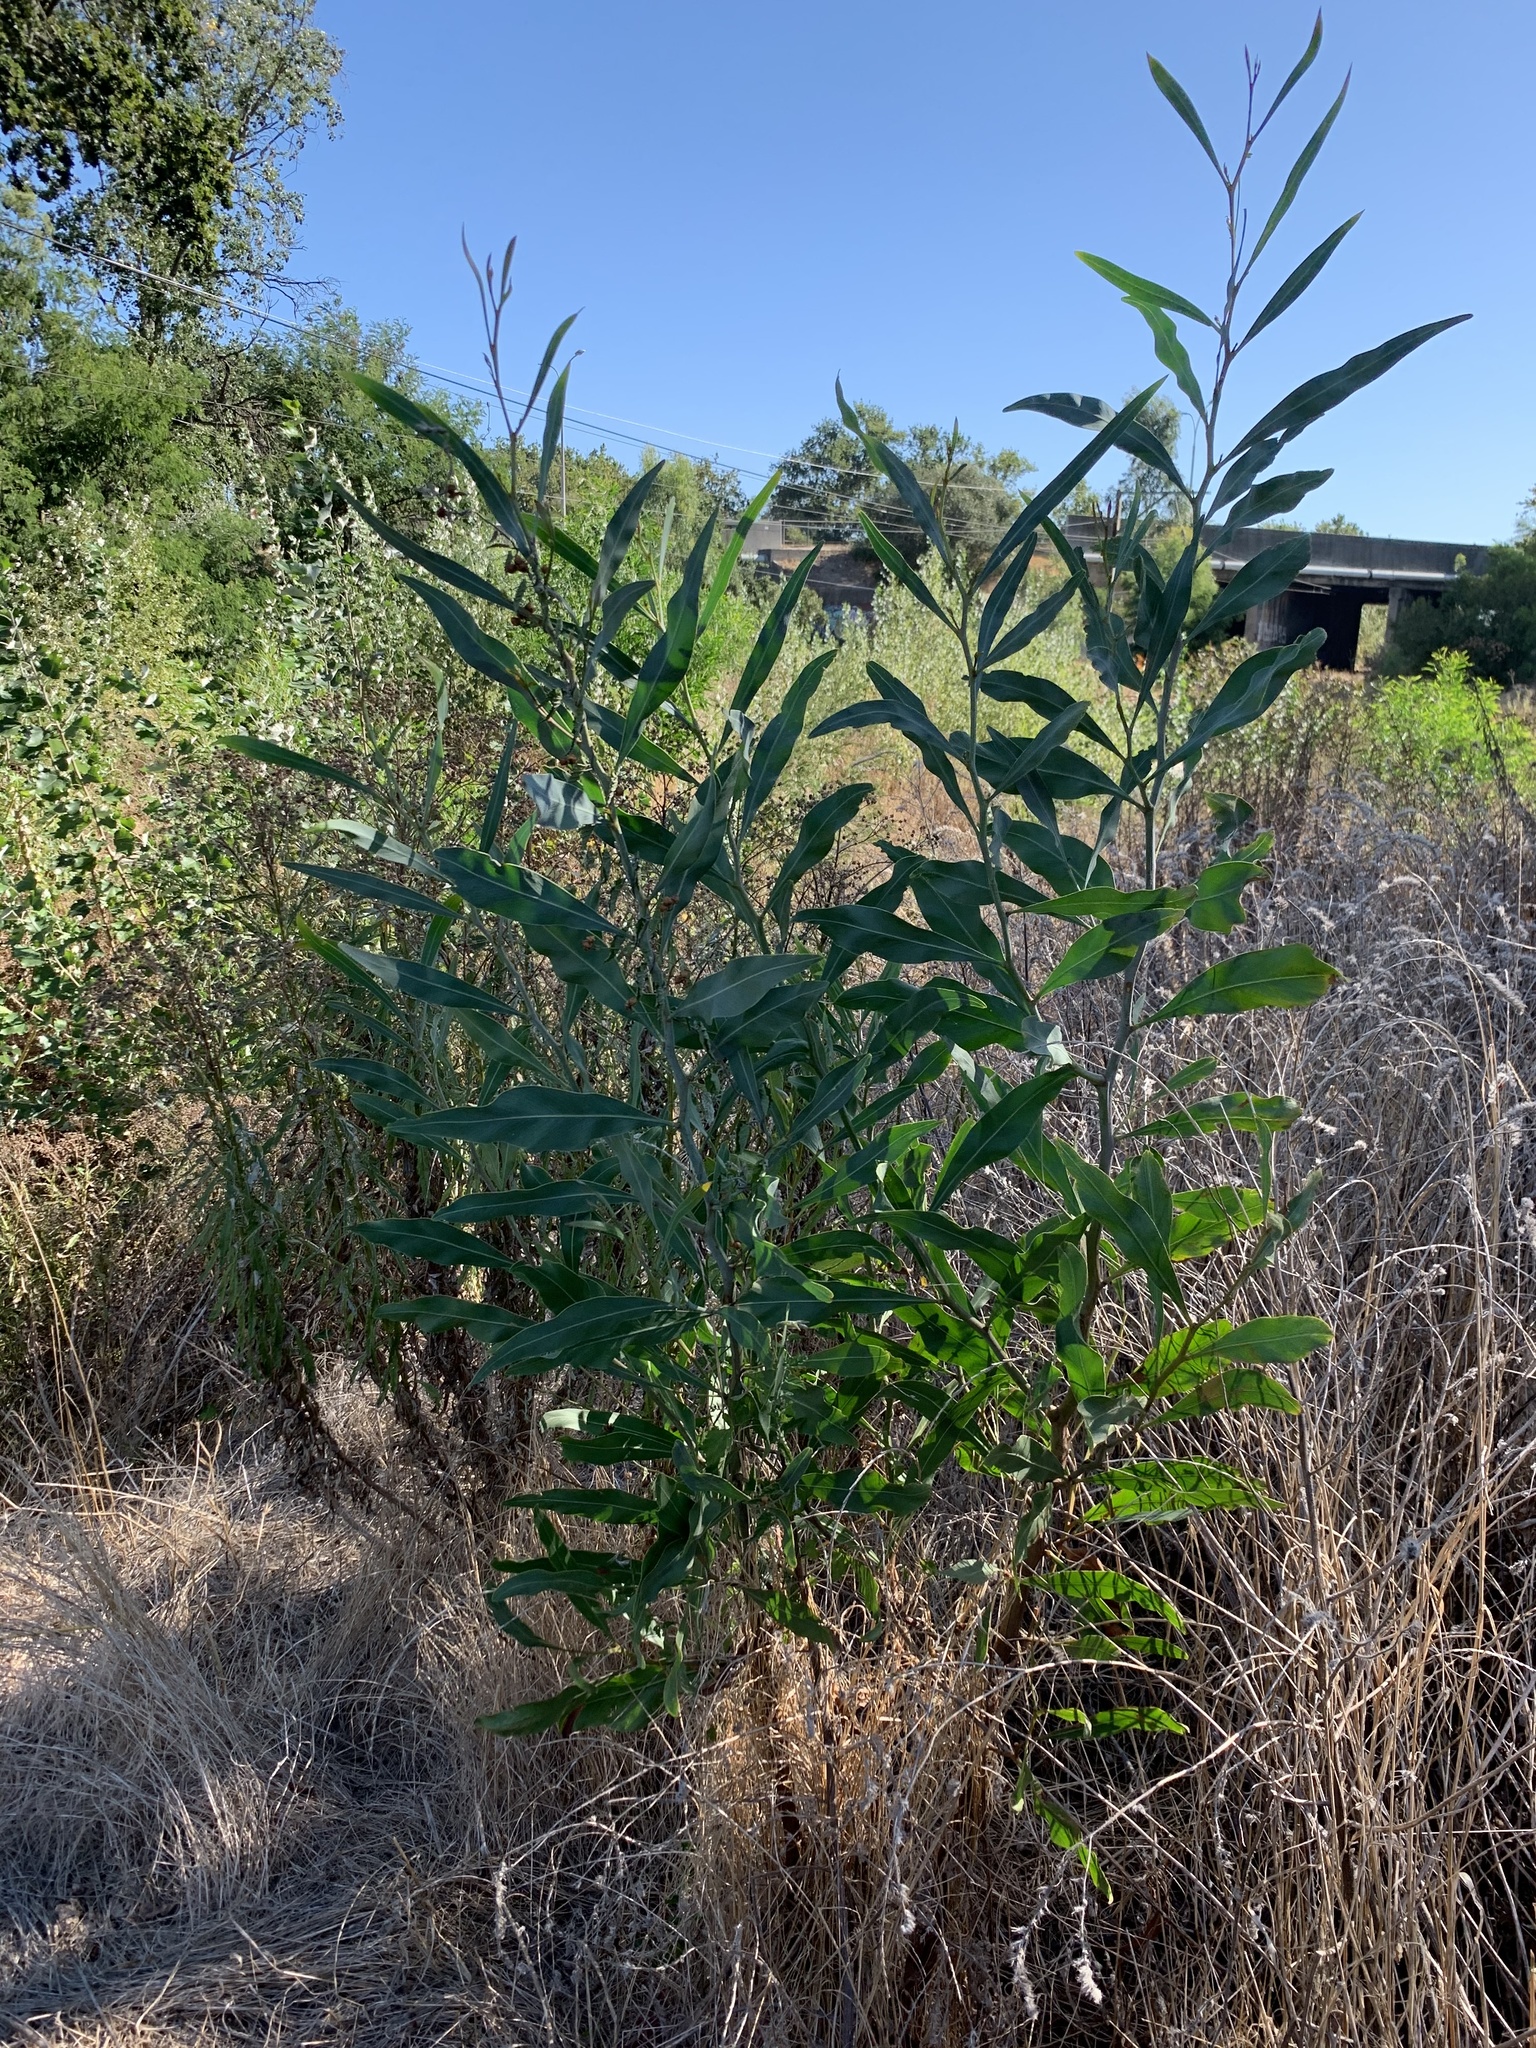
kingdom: Plantae
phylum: Tracheophyta
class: Magnoliopsida
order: Fabales
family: Fabaceae
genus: Acacia
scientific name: Acacia saligna
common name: Orange wattle
